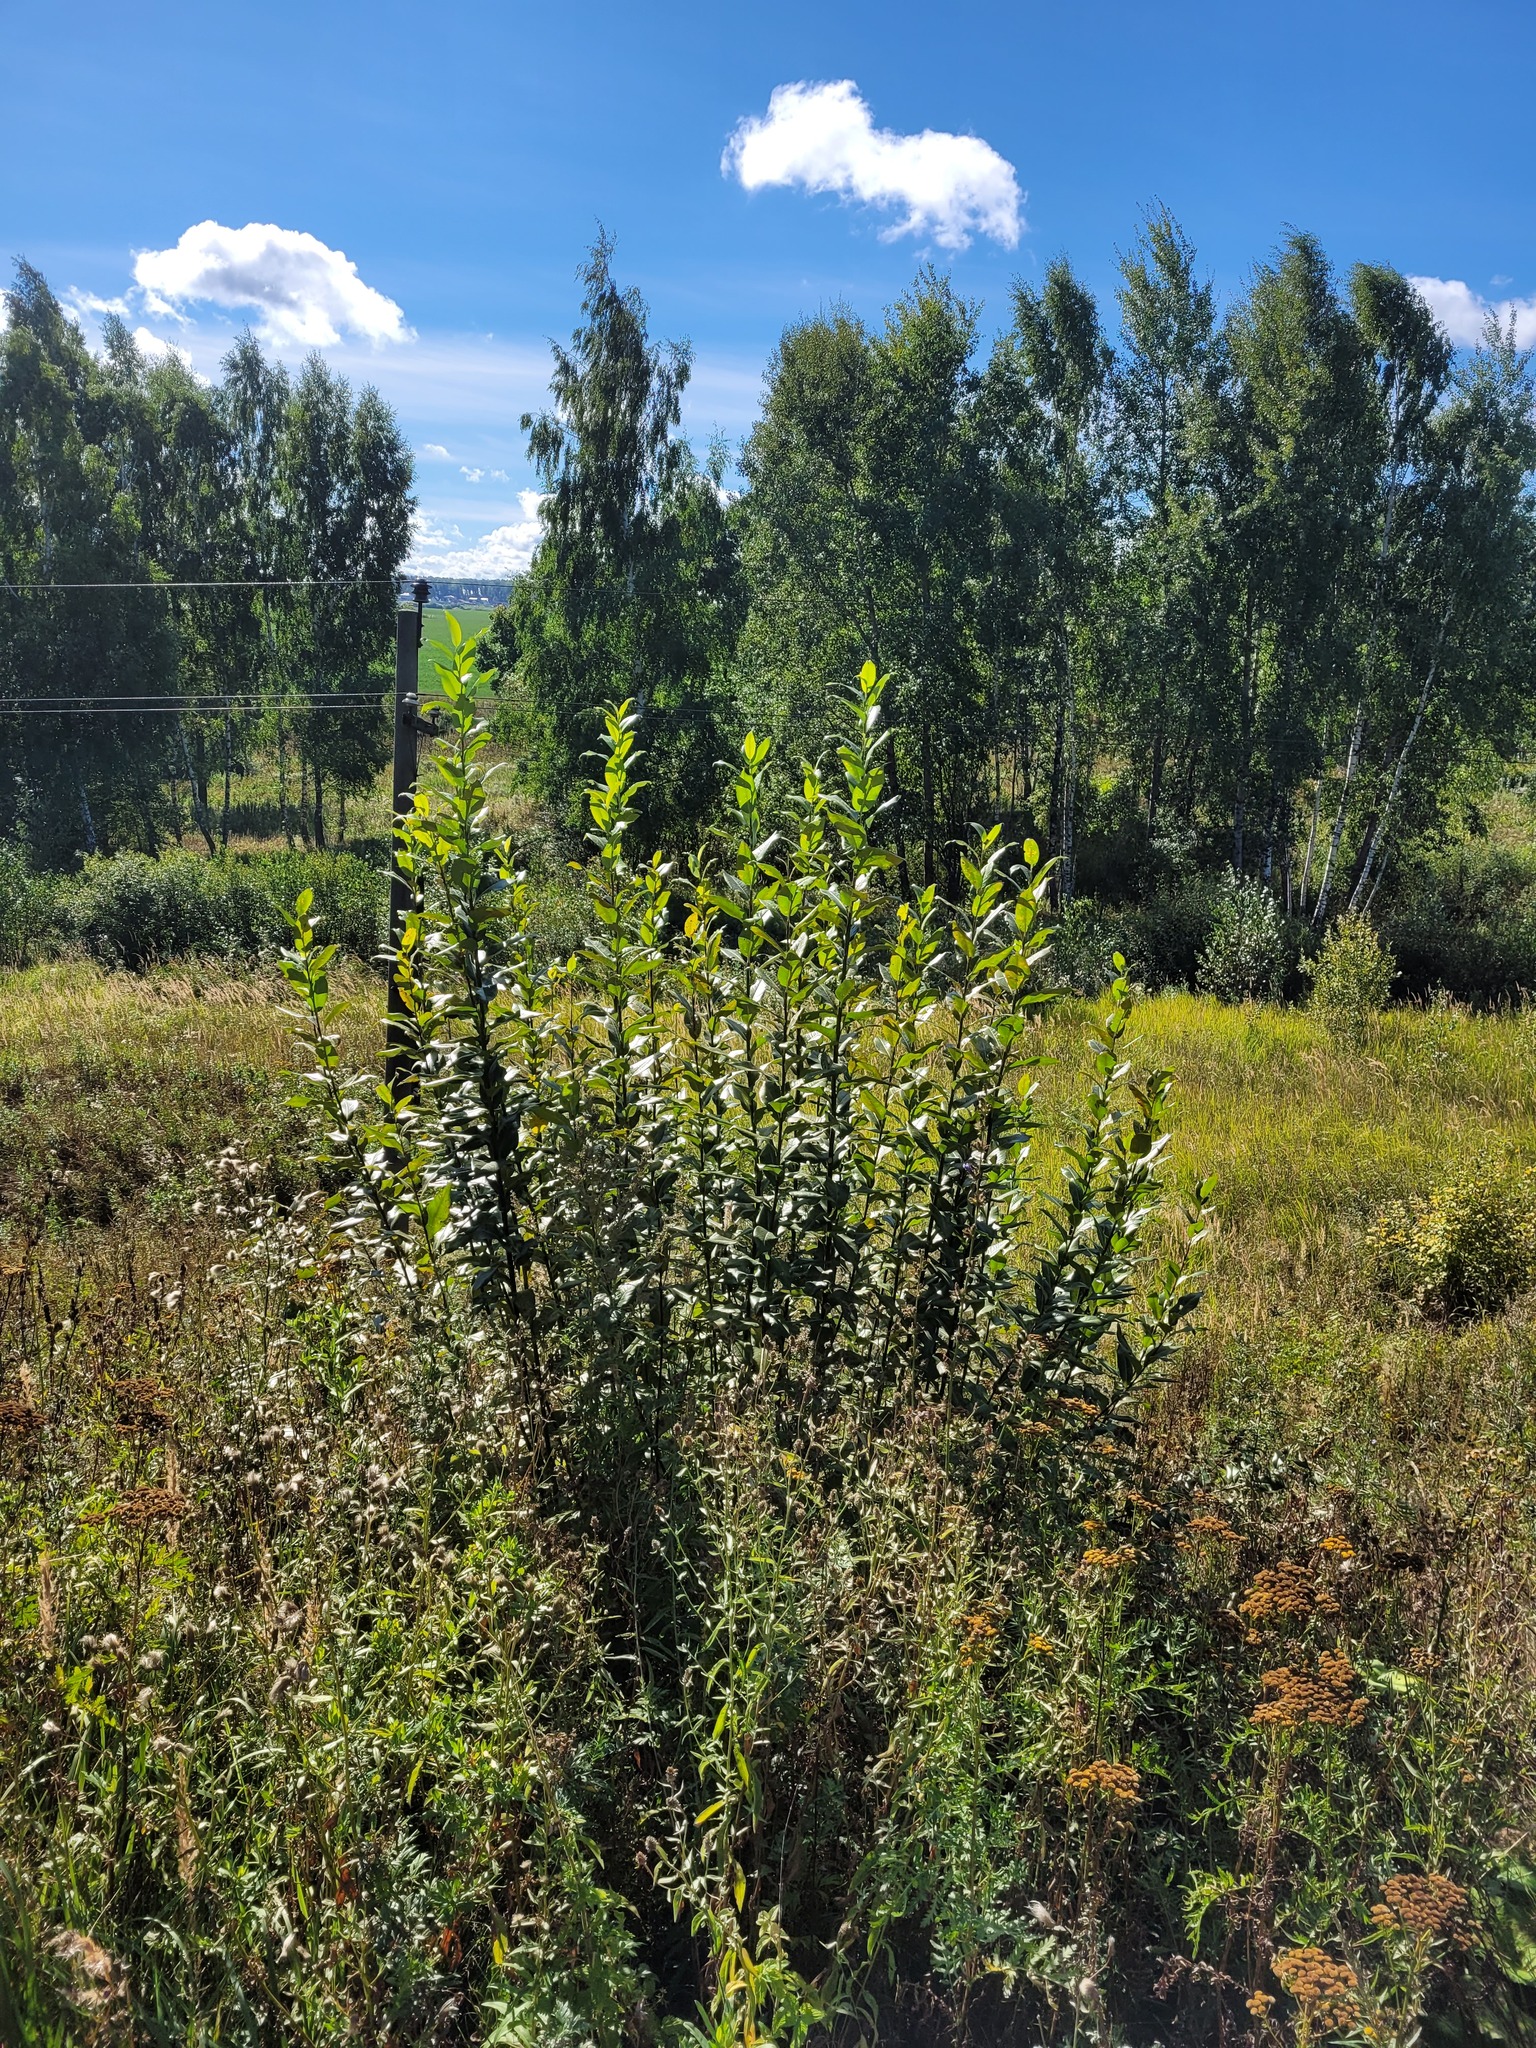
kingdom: Plantae
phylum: Tracheophyta
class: Magnoliopsida
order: Malpighiales
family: Salicaceae
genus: Salix
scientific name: Salix pentandra
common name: Bay willow
